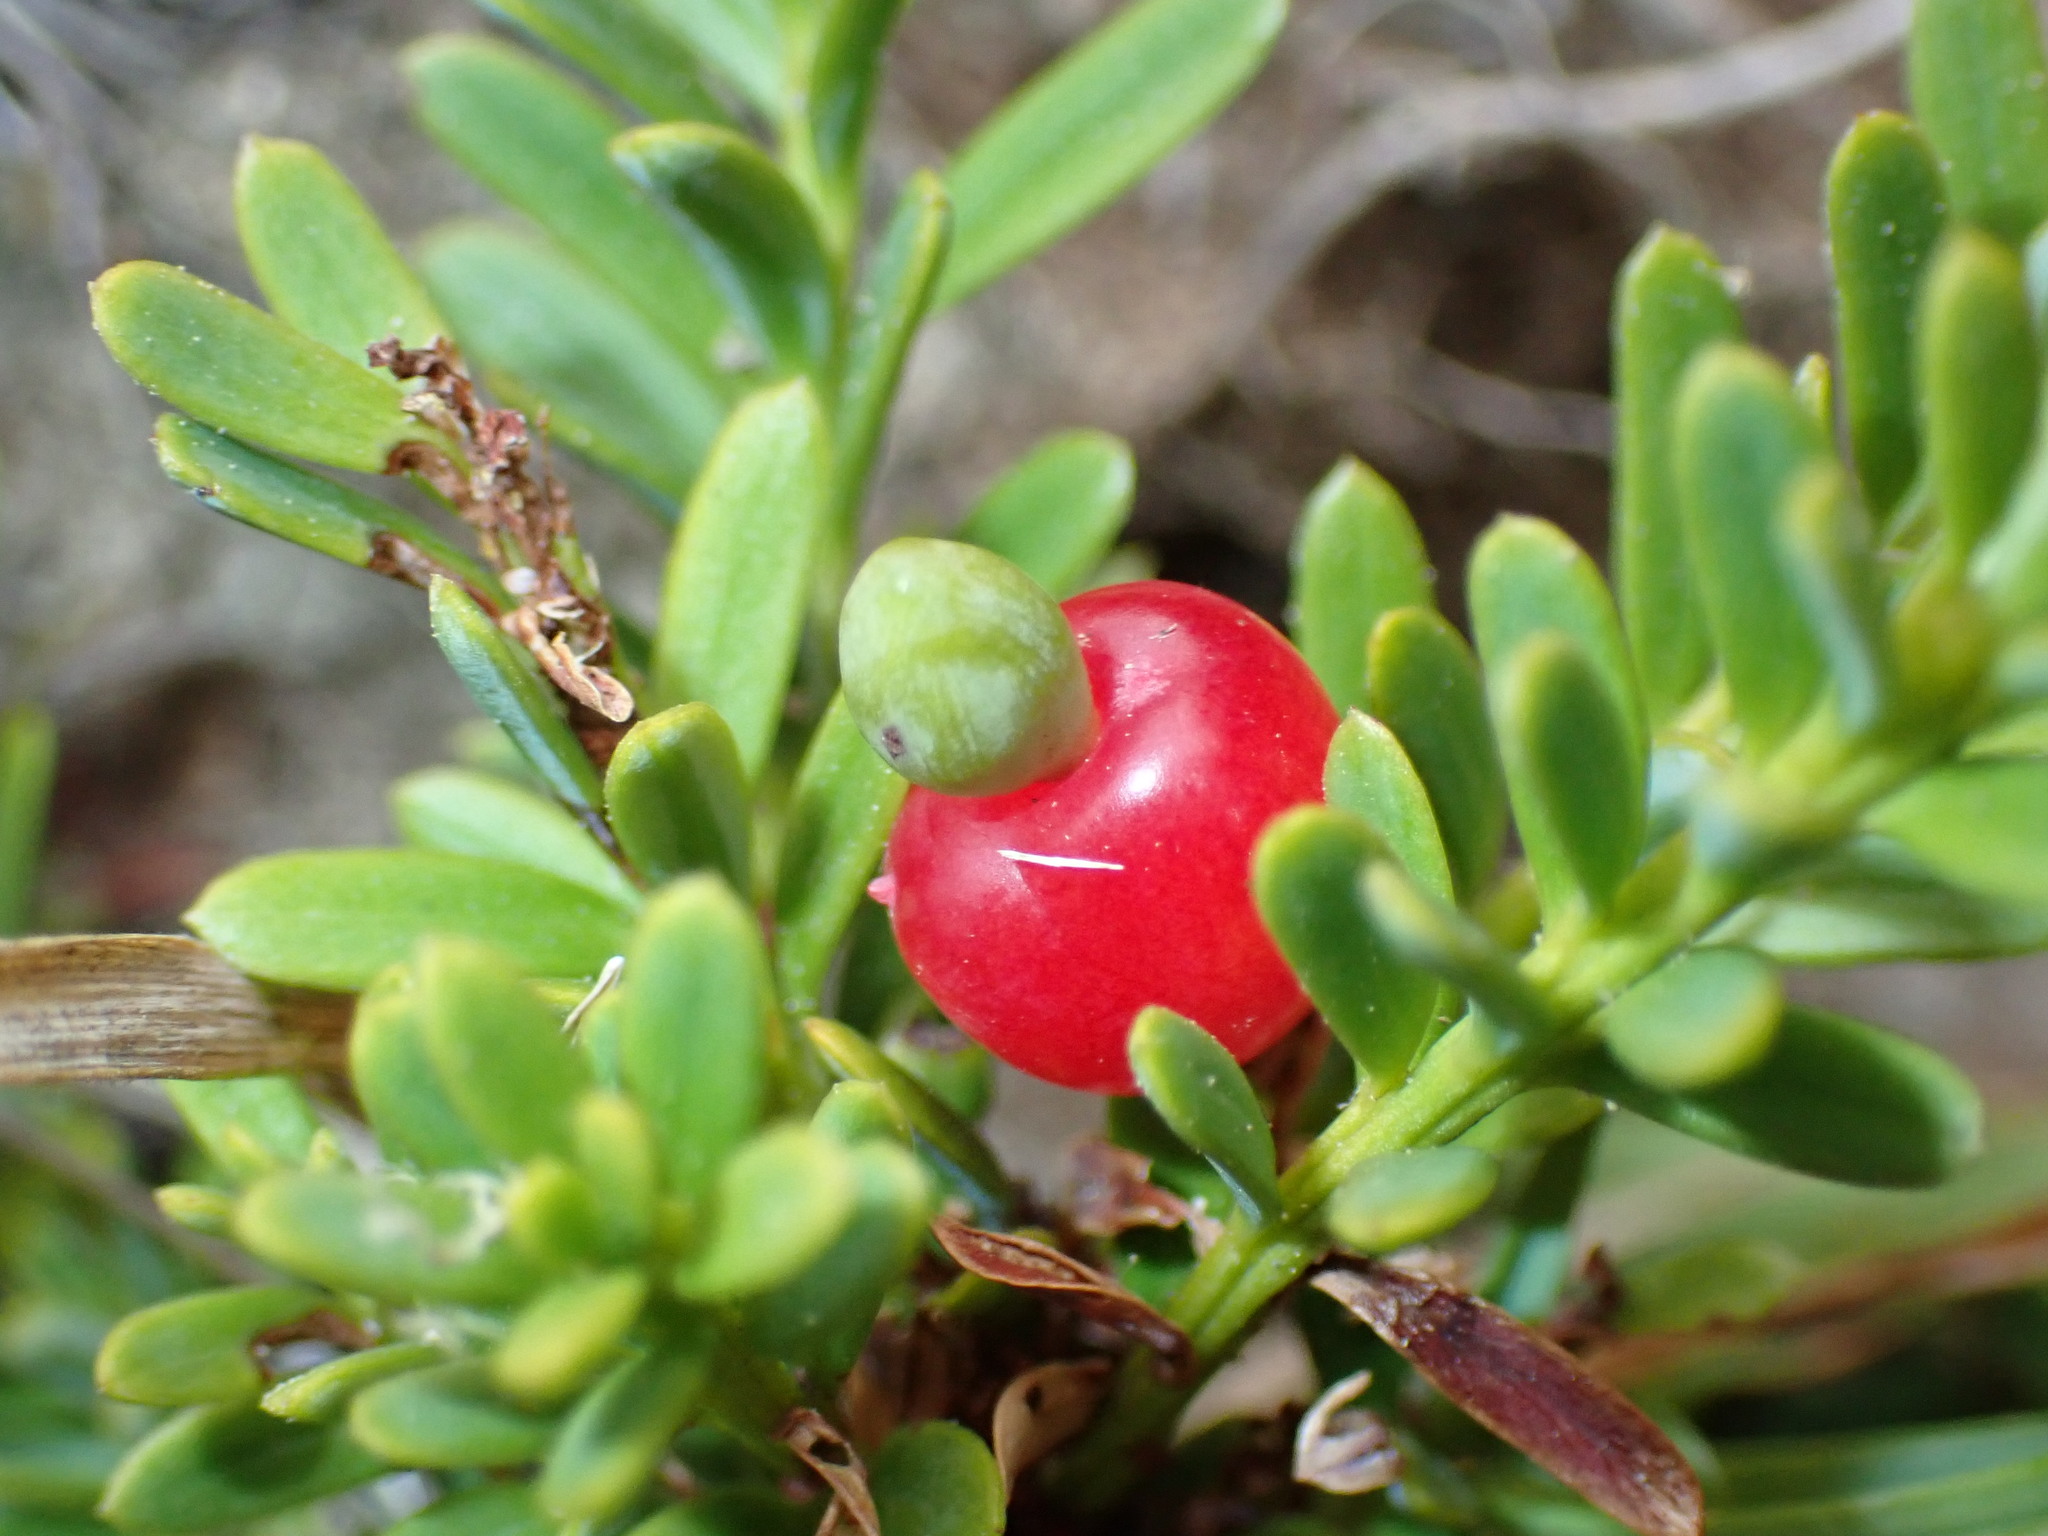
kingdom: Plantae
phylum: Tracheophyta
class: Pinopsida
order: Pinales
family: Podocarpaceae
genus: Podocarpus
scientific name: Podocarpus nivalis
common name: Alpine totara
